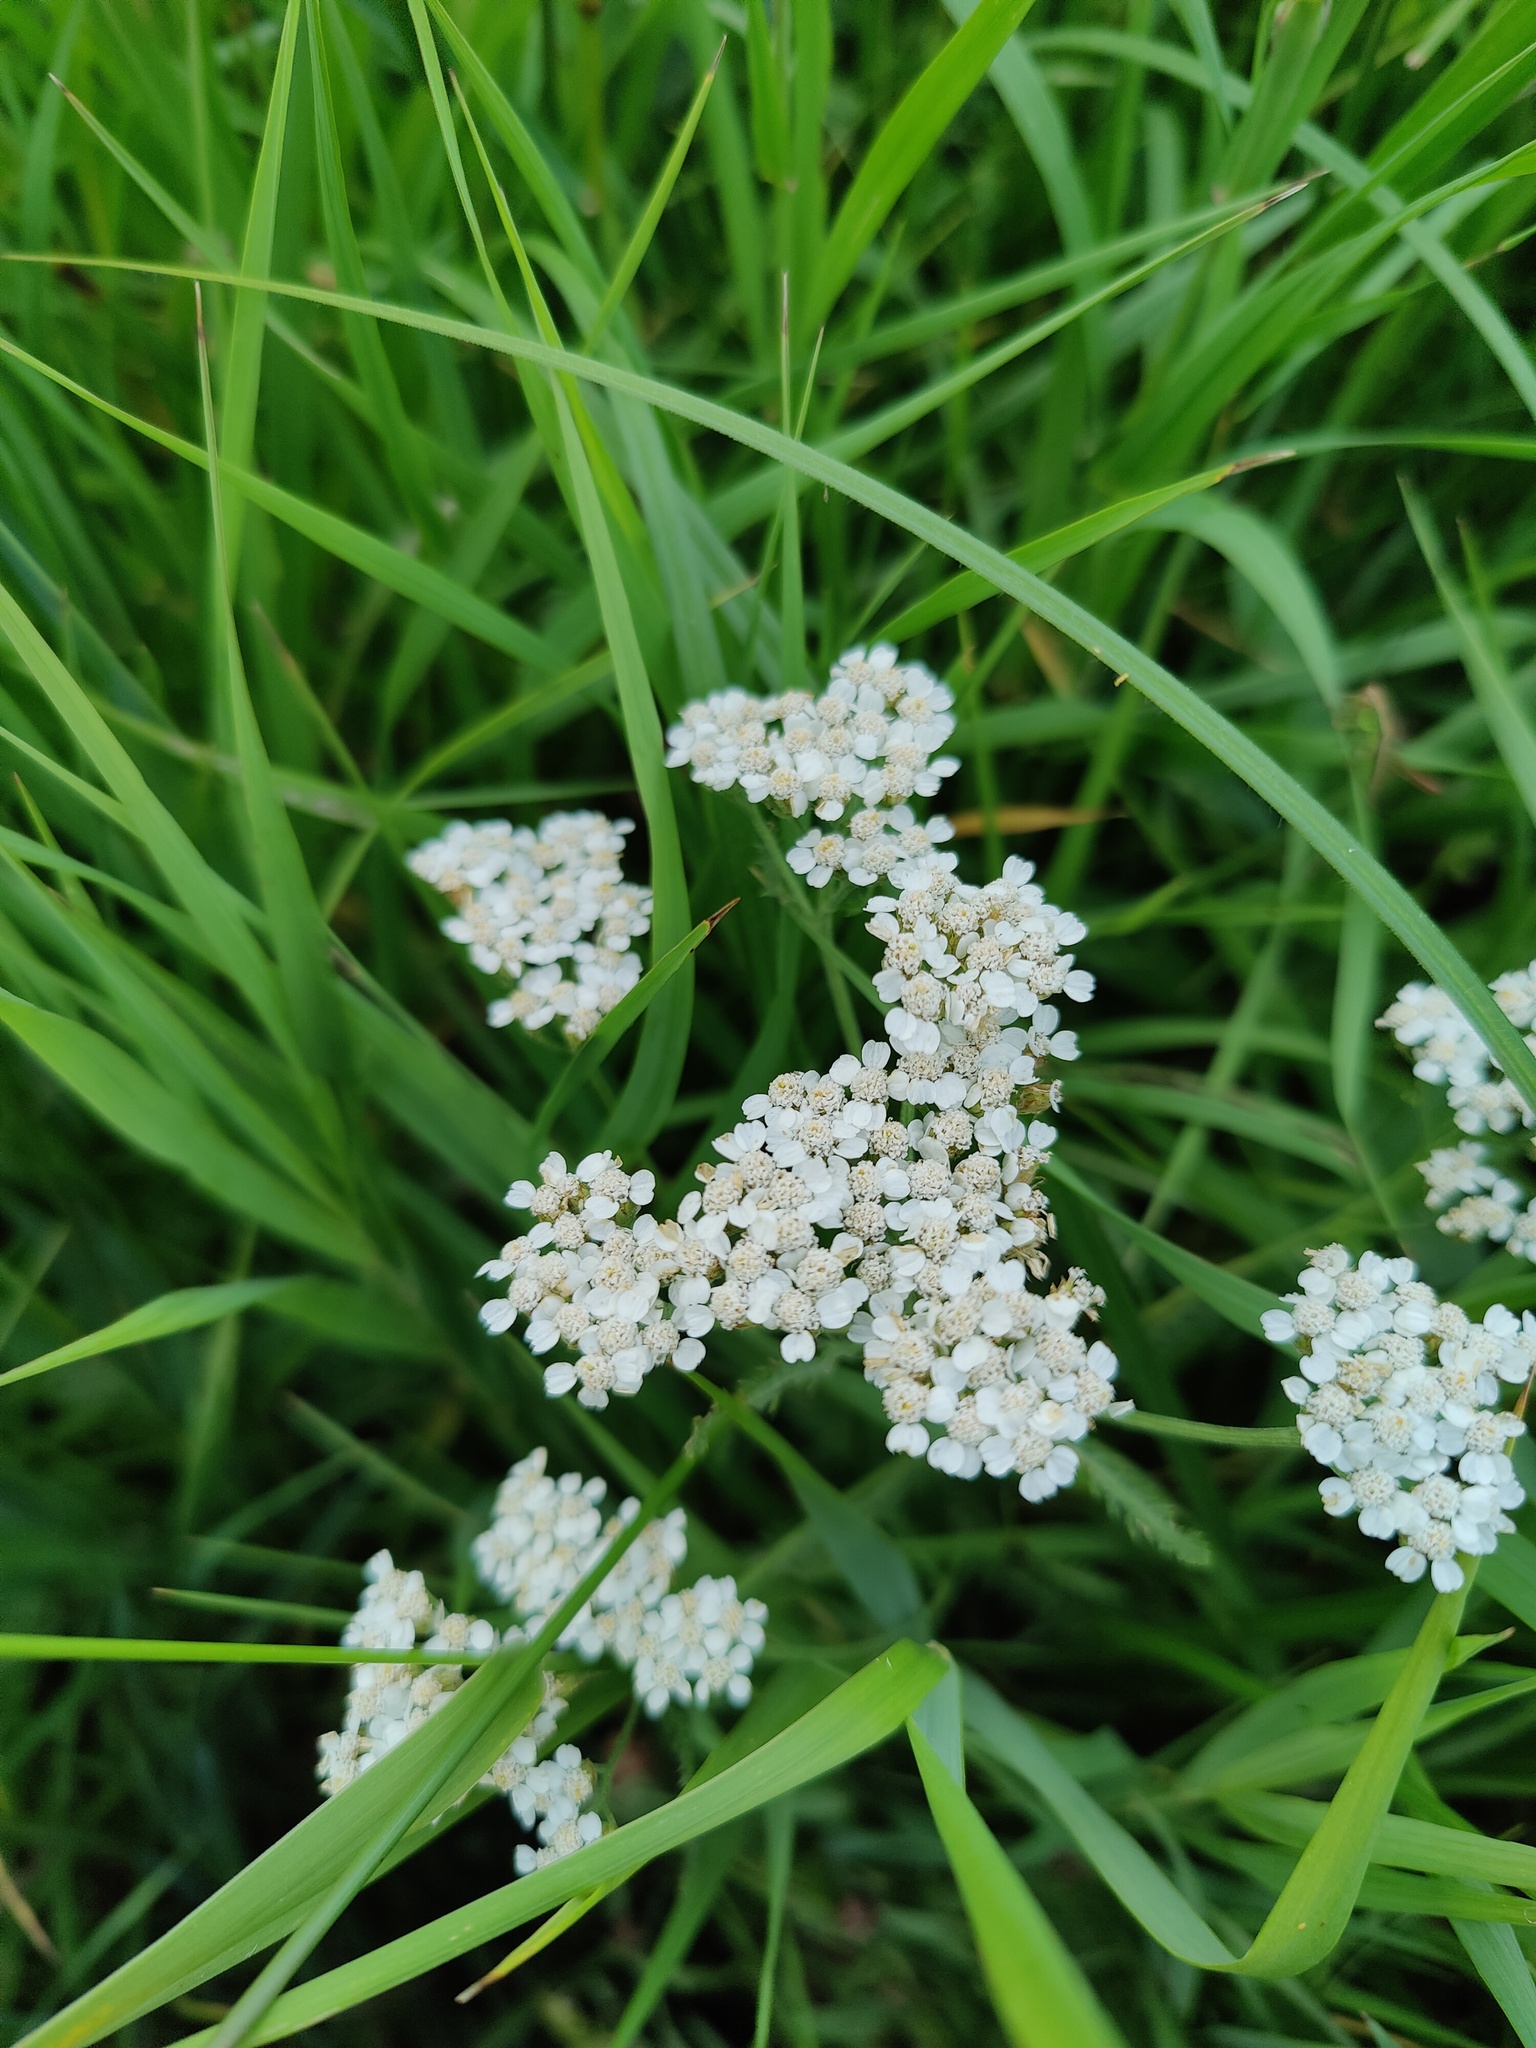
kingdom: Plantae
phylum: Tracheophyta
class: Magnoliopsida
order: Asterales
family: Asteraceae
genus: Achillea
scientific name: Achillea millefolium
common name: Yarrow
